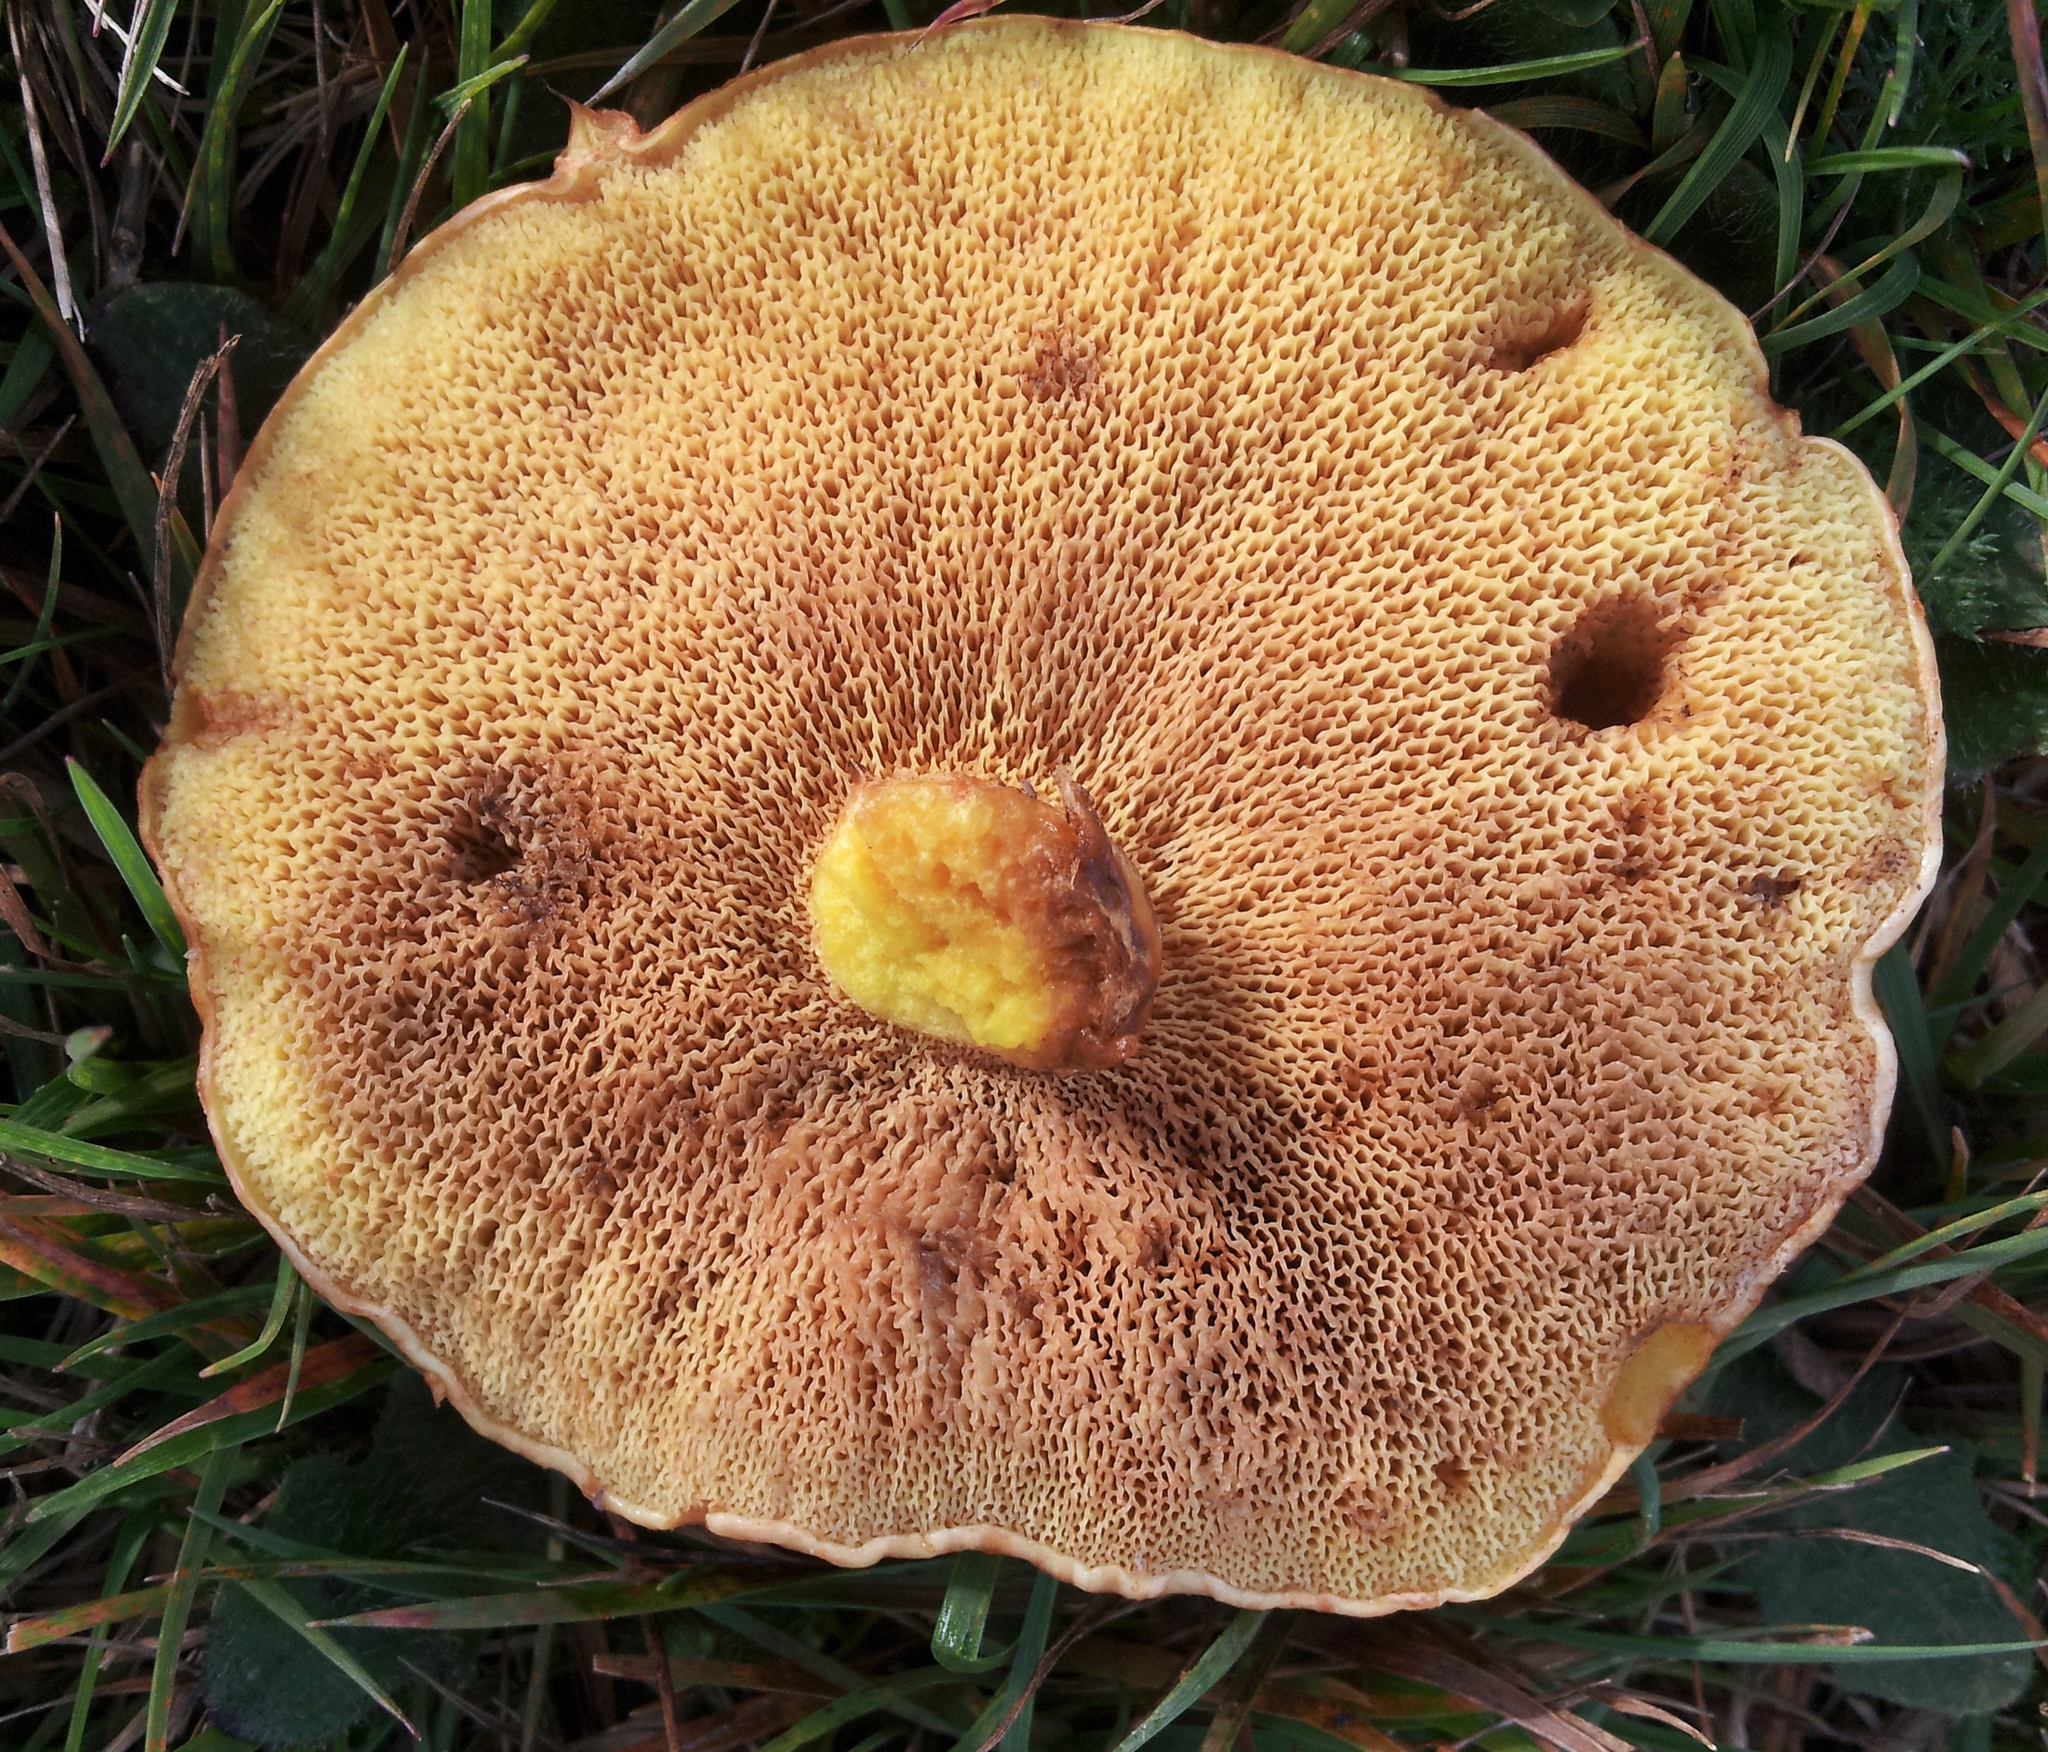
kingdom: Fungi
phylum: Basidiomycota
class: Agaricomycetes
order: Boletales
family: Suillaceae
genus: Suillus
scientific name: Suillus grevillei
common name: Larch bolete
